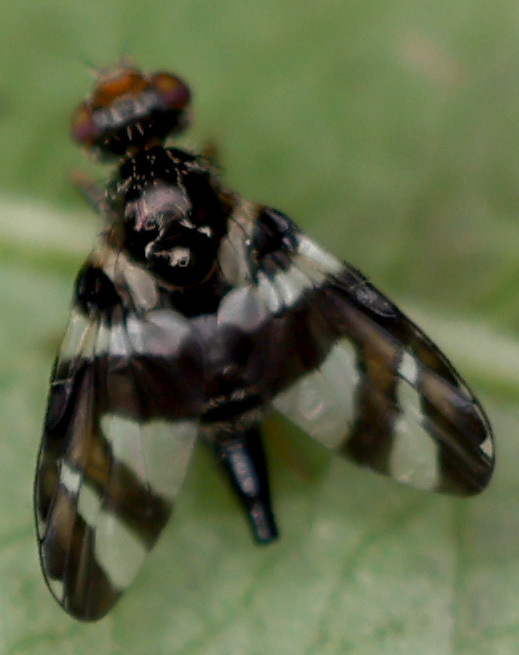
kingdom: Animalia
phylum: Arthropoda
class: Insecta
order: Diptera
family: Tephritidae
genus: Procecidochares
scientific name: Procecidochares atra
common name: Goldenrod brussels sprout gall fly
